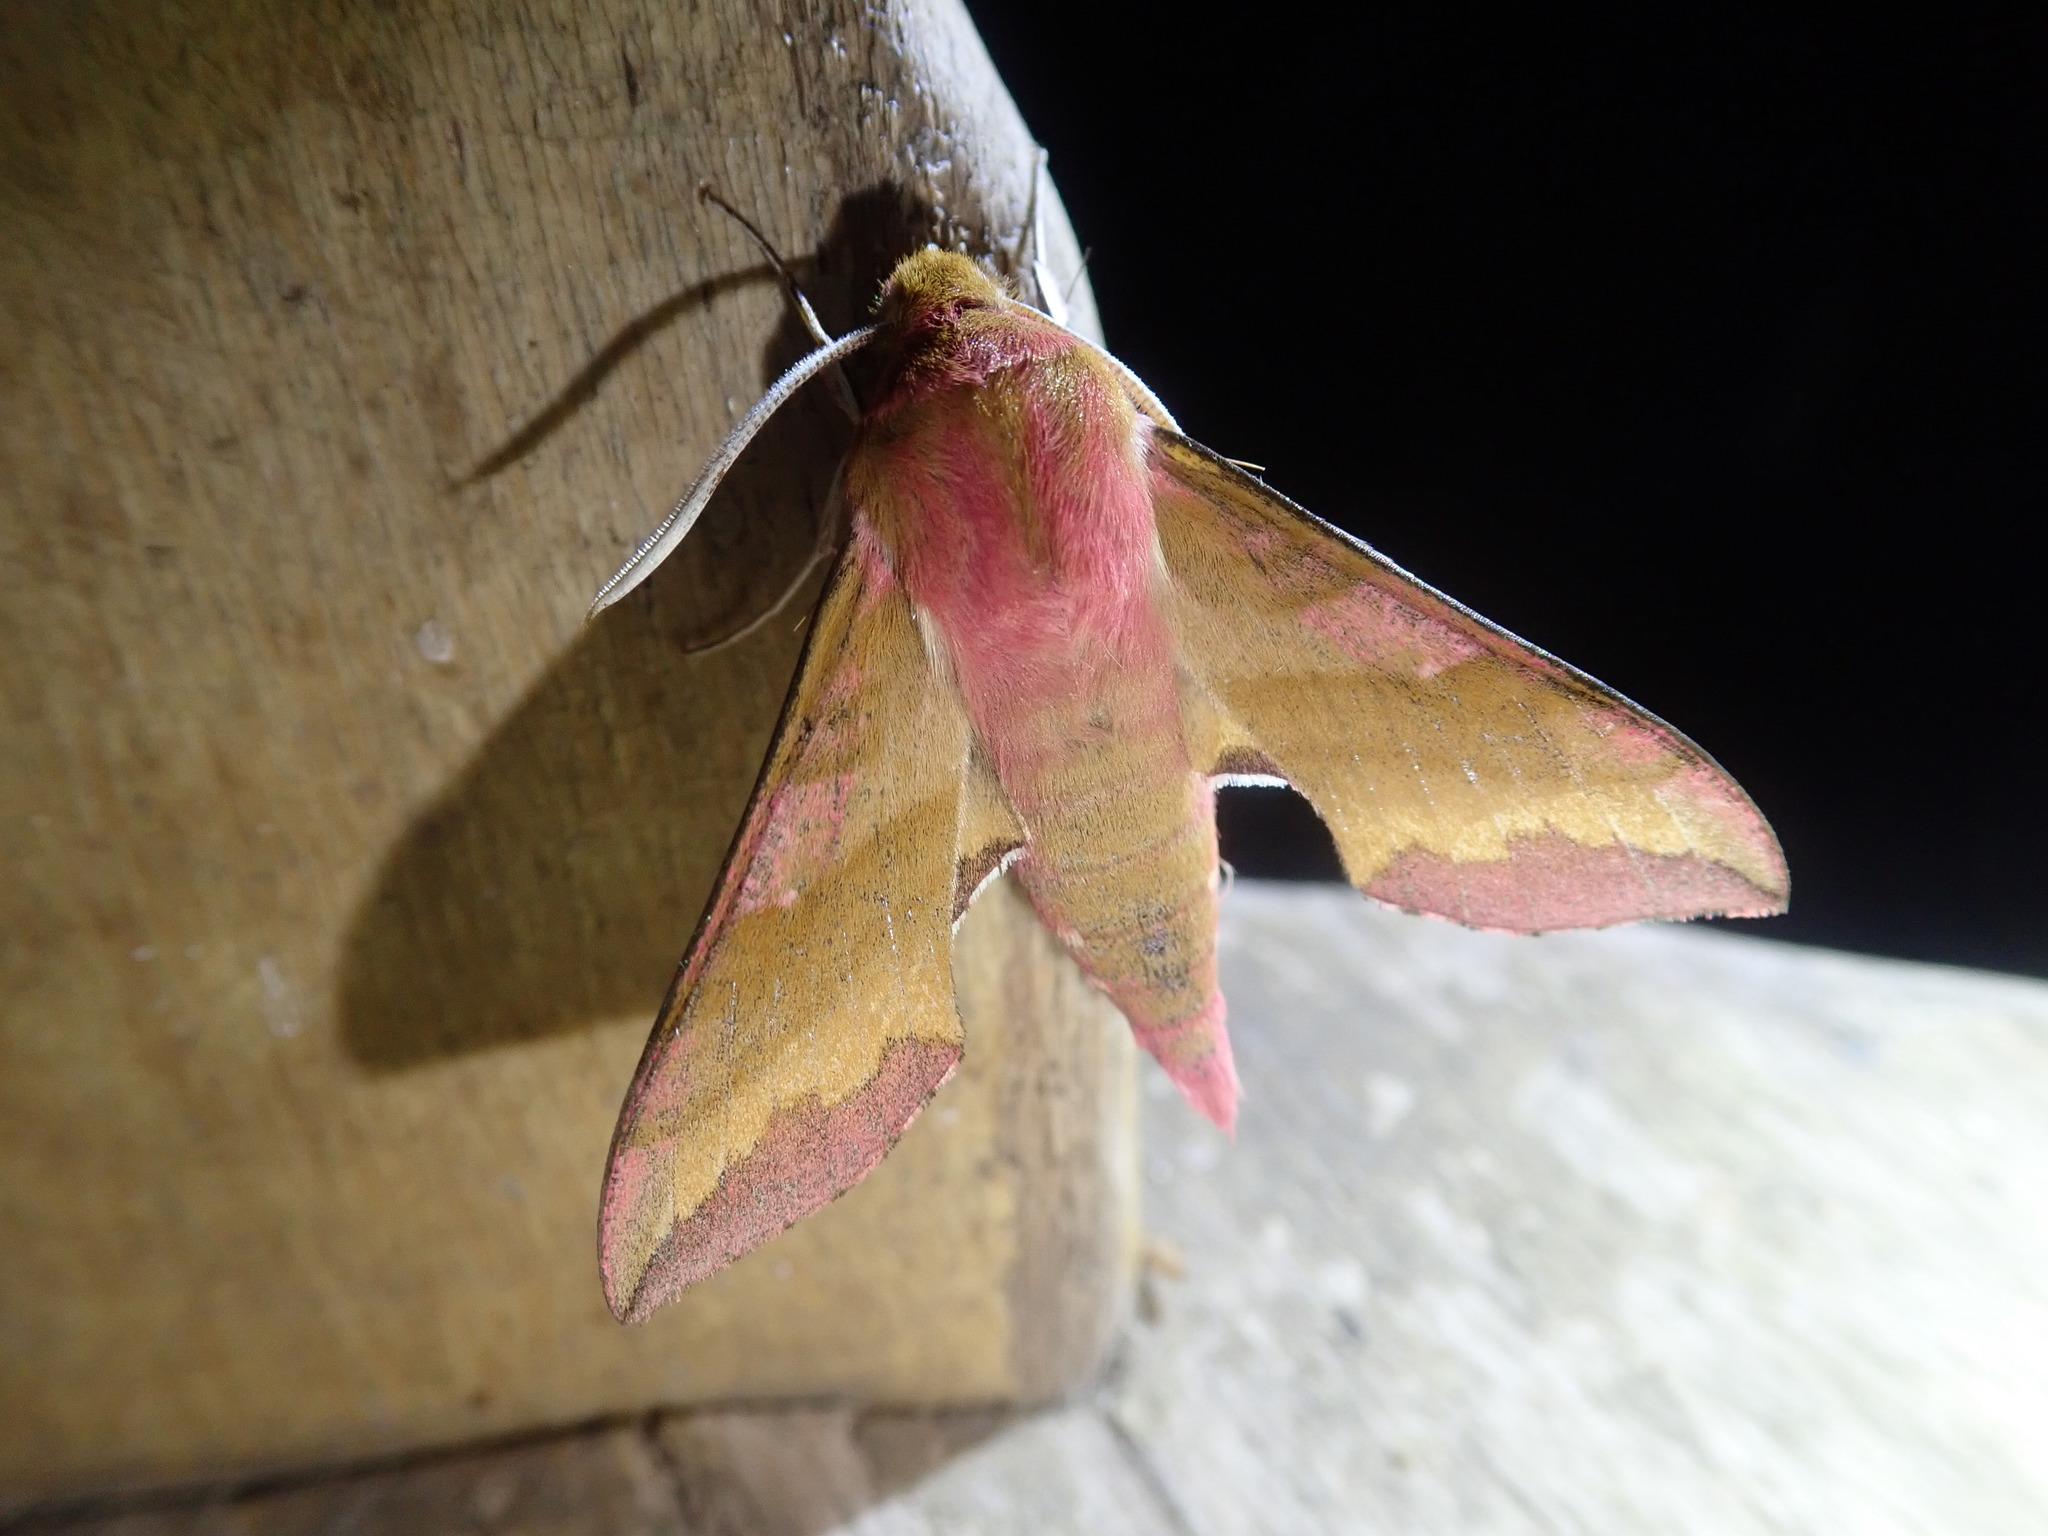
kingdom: Animalia
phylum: Arthropoda
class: Insecta
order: Lepidoptera
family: Sphingidae
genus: Deilephila
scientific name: Deilephila porcellus
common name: Small elephant hawk-moth
